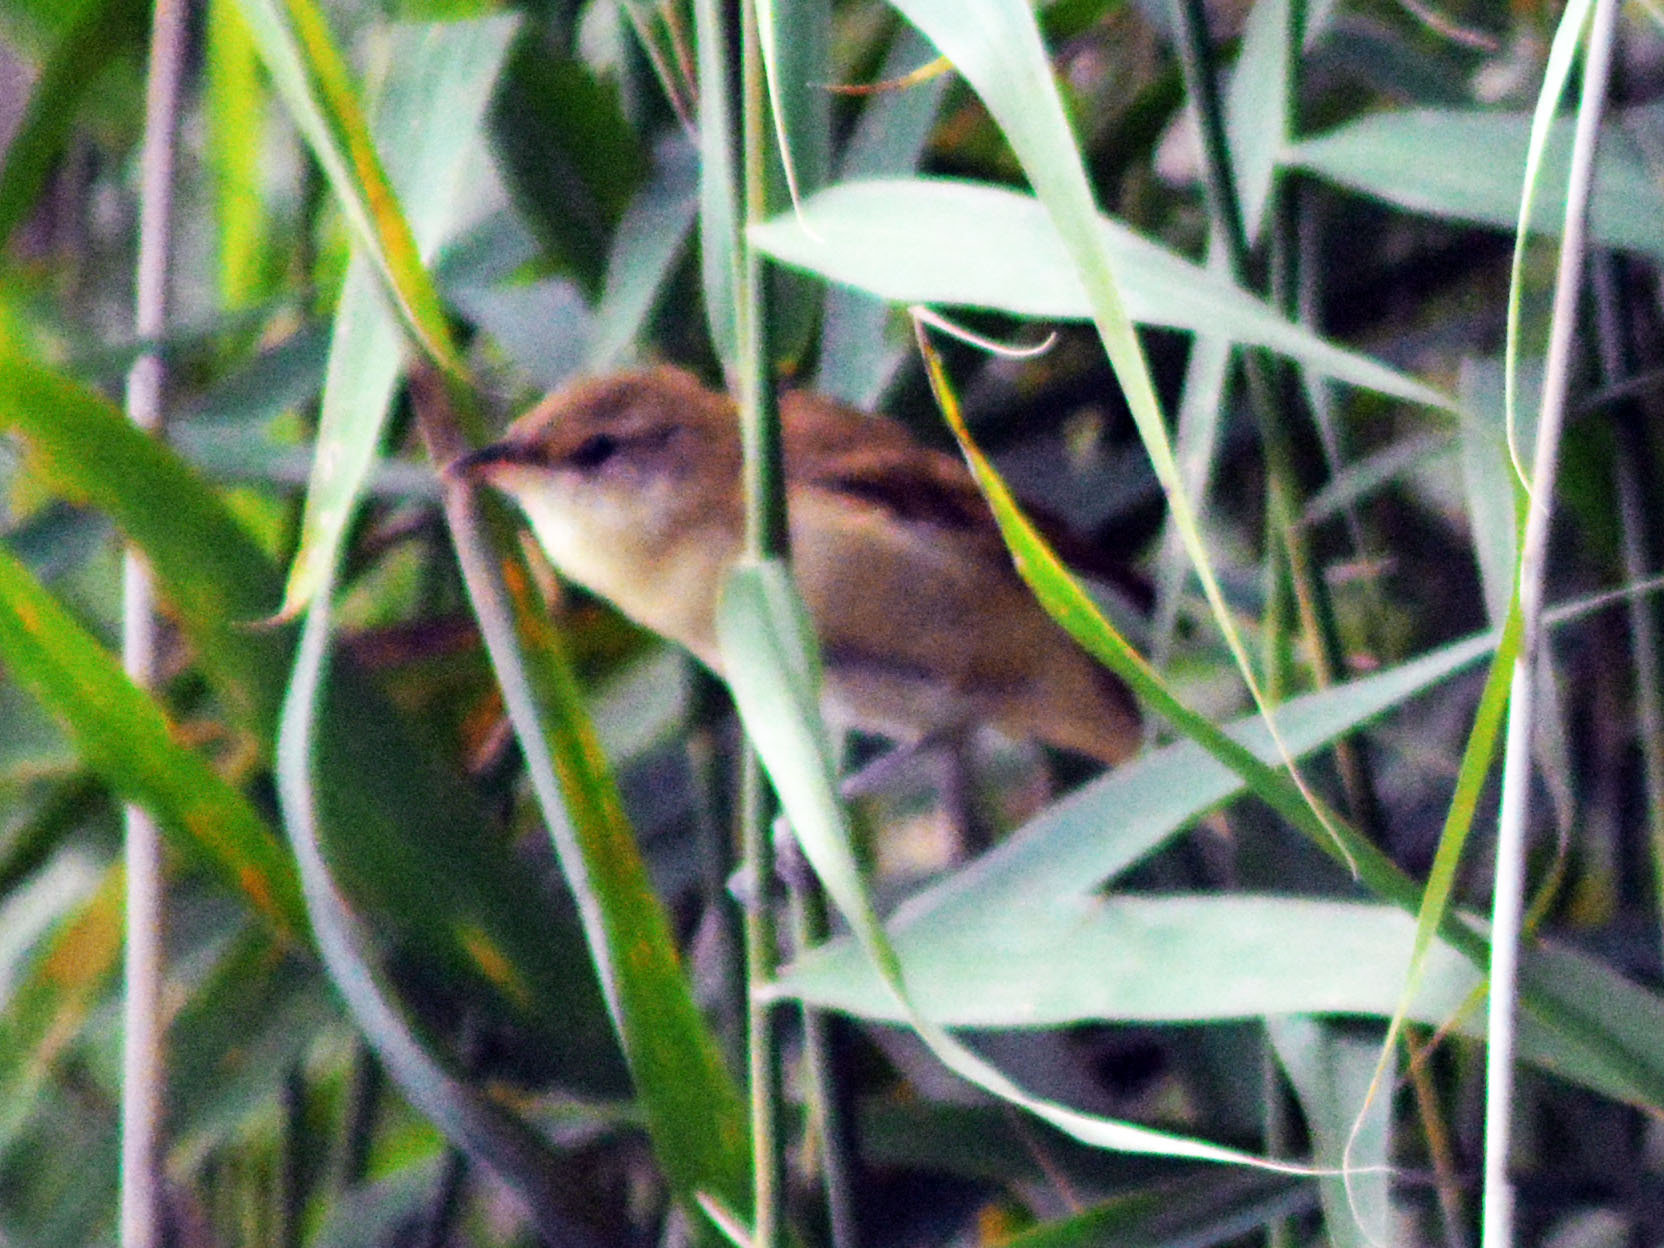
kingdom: Animalia
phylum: Chordata
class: Aves
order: Passeriformes
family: Acrocephalidae
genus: Acrocephalus
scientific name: Acrocephalus arundinaceus
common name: Great reed warbler
